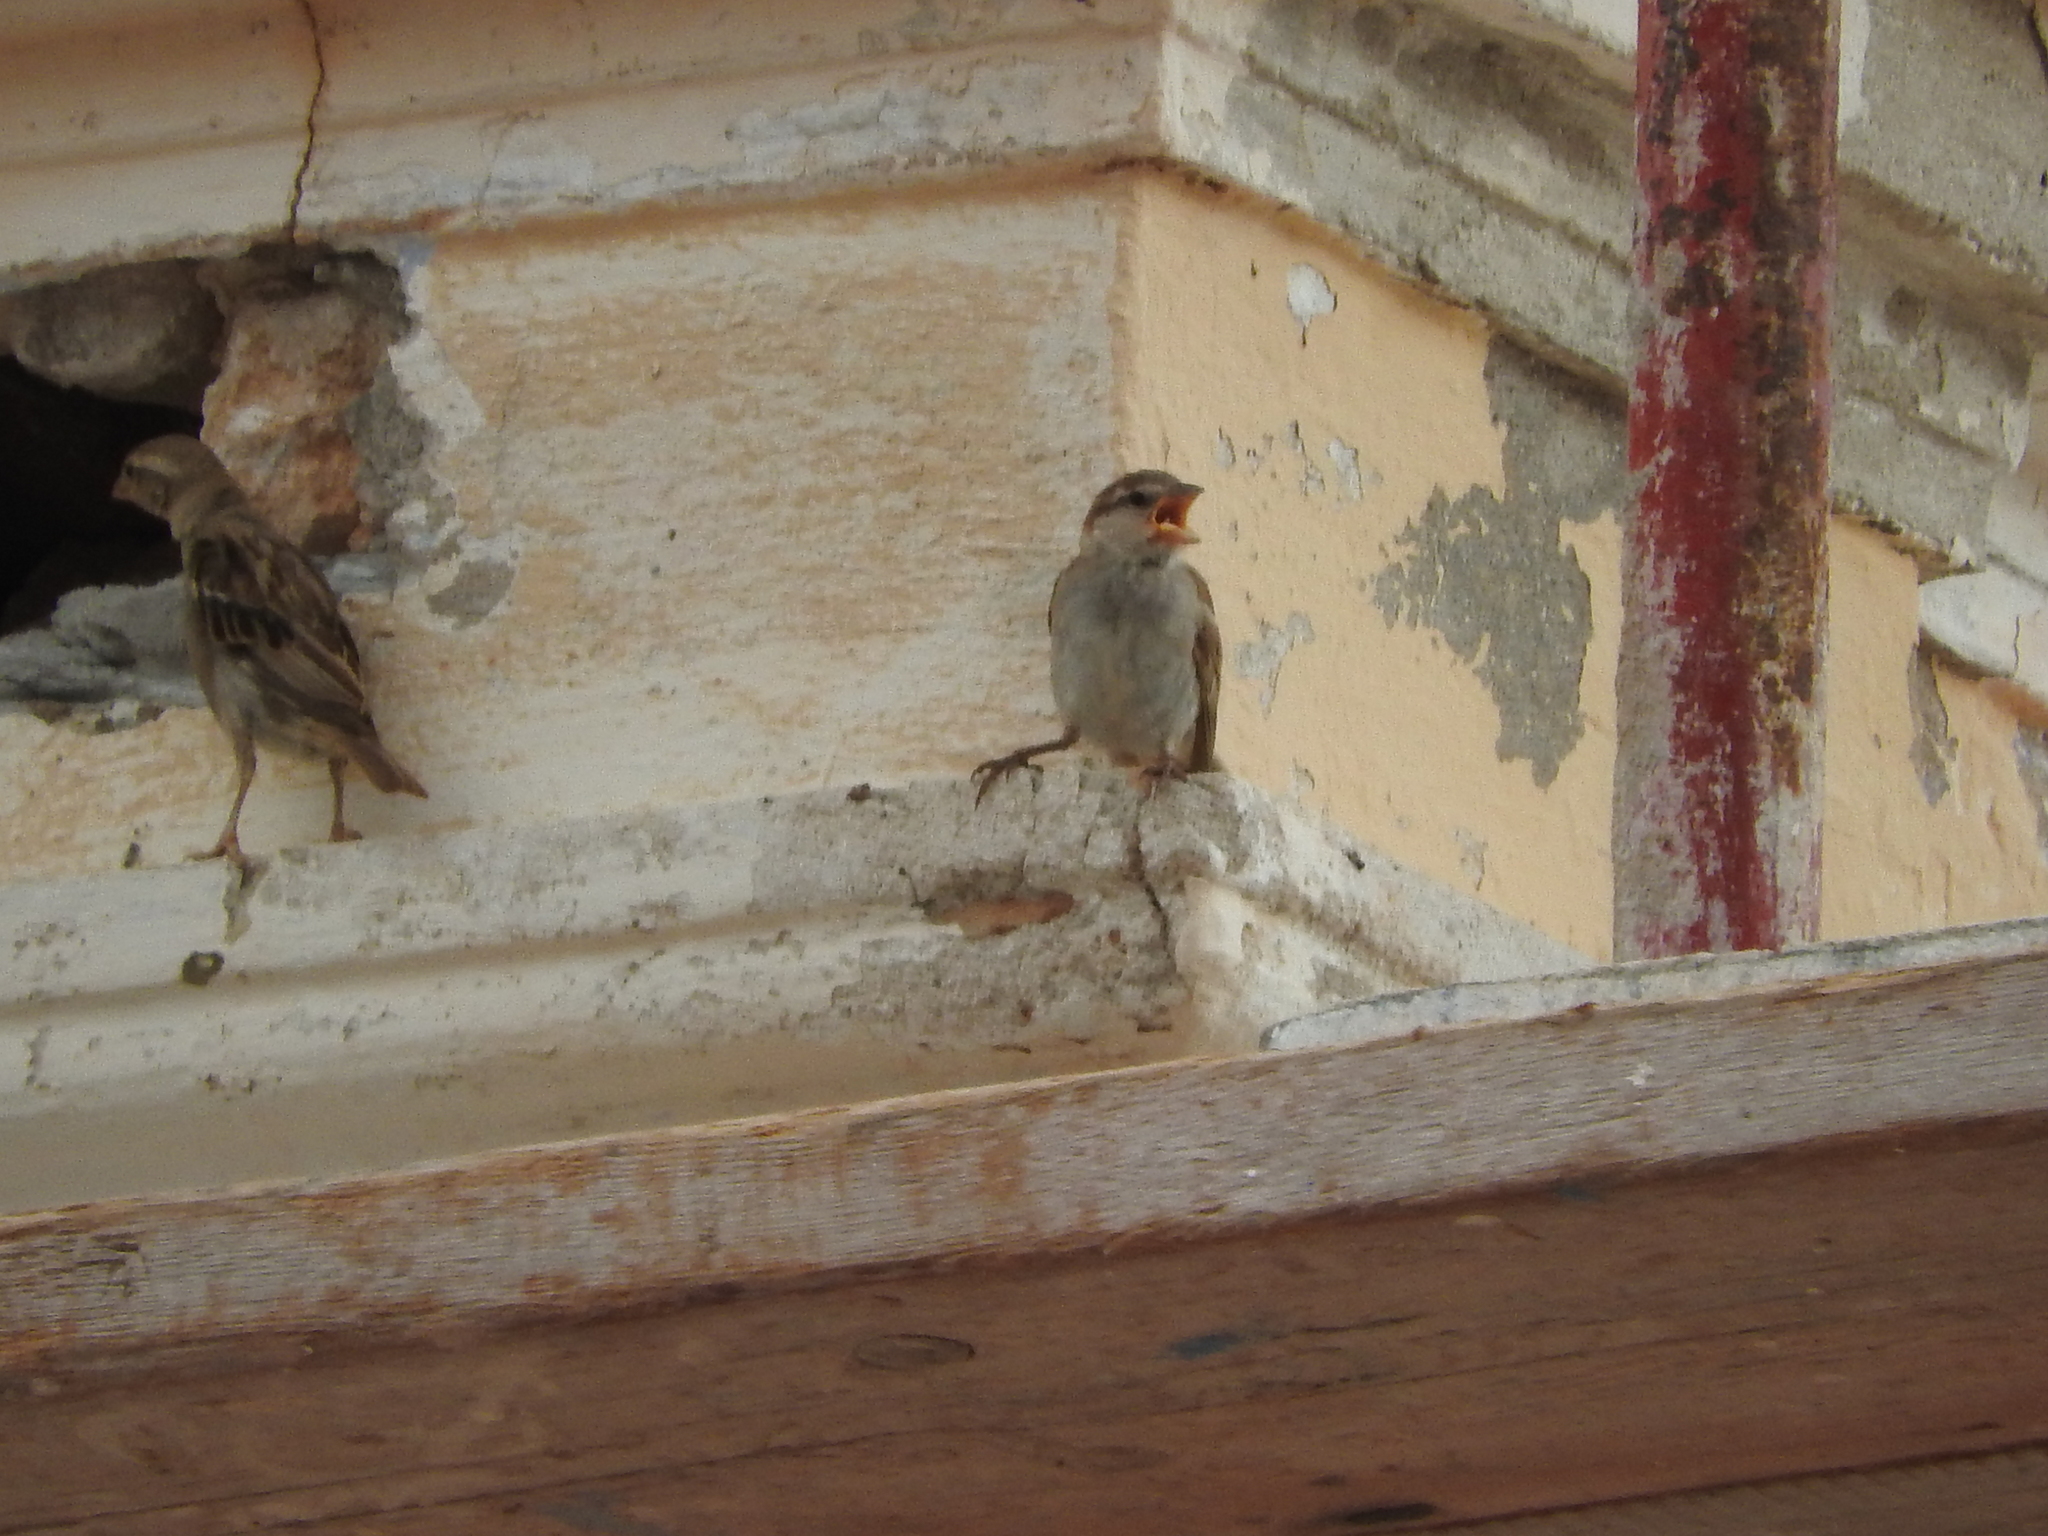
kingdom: Animalia
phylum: Chordata
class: Aves
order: Passeriformes
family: Passeridae
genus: Passer
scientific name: Passer
